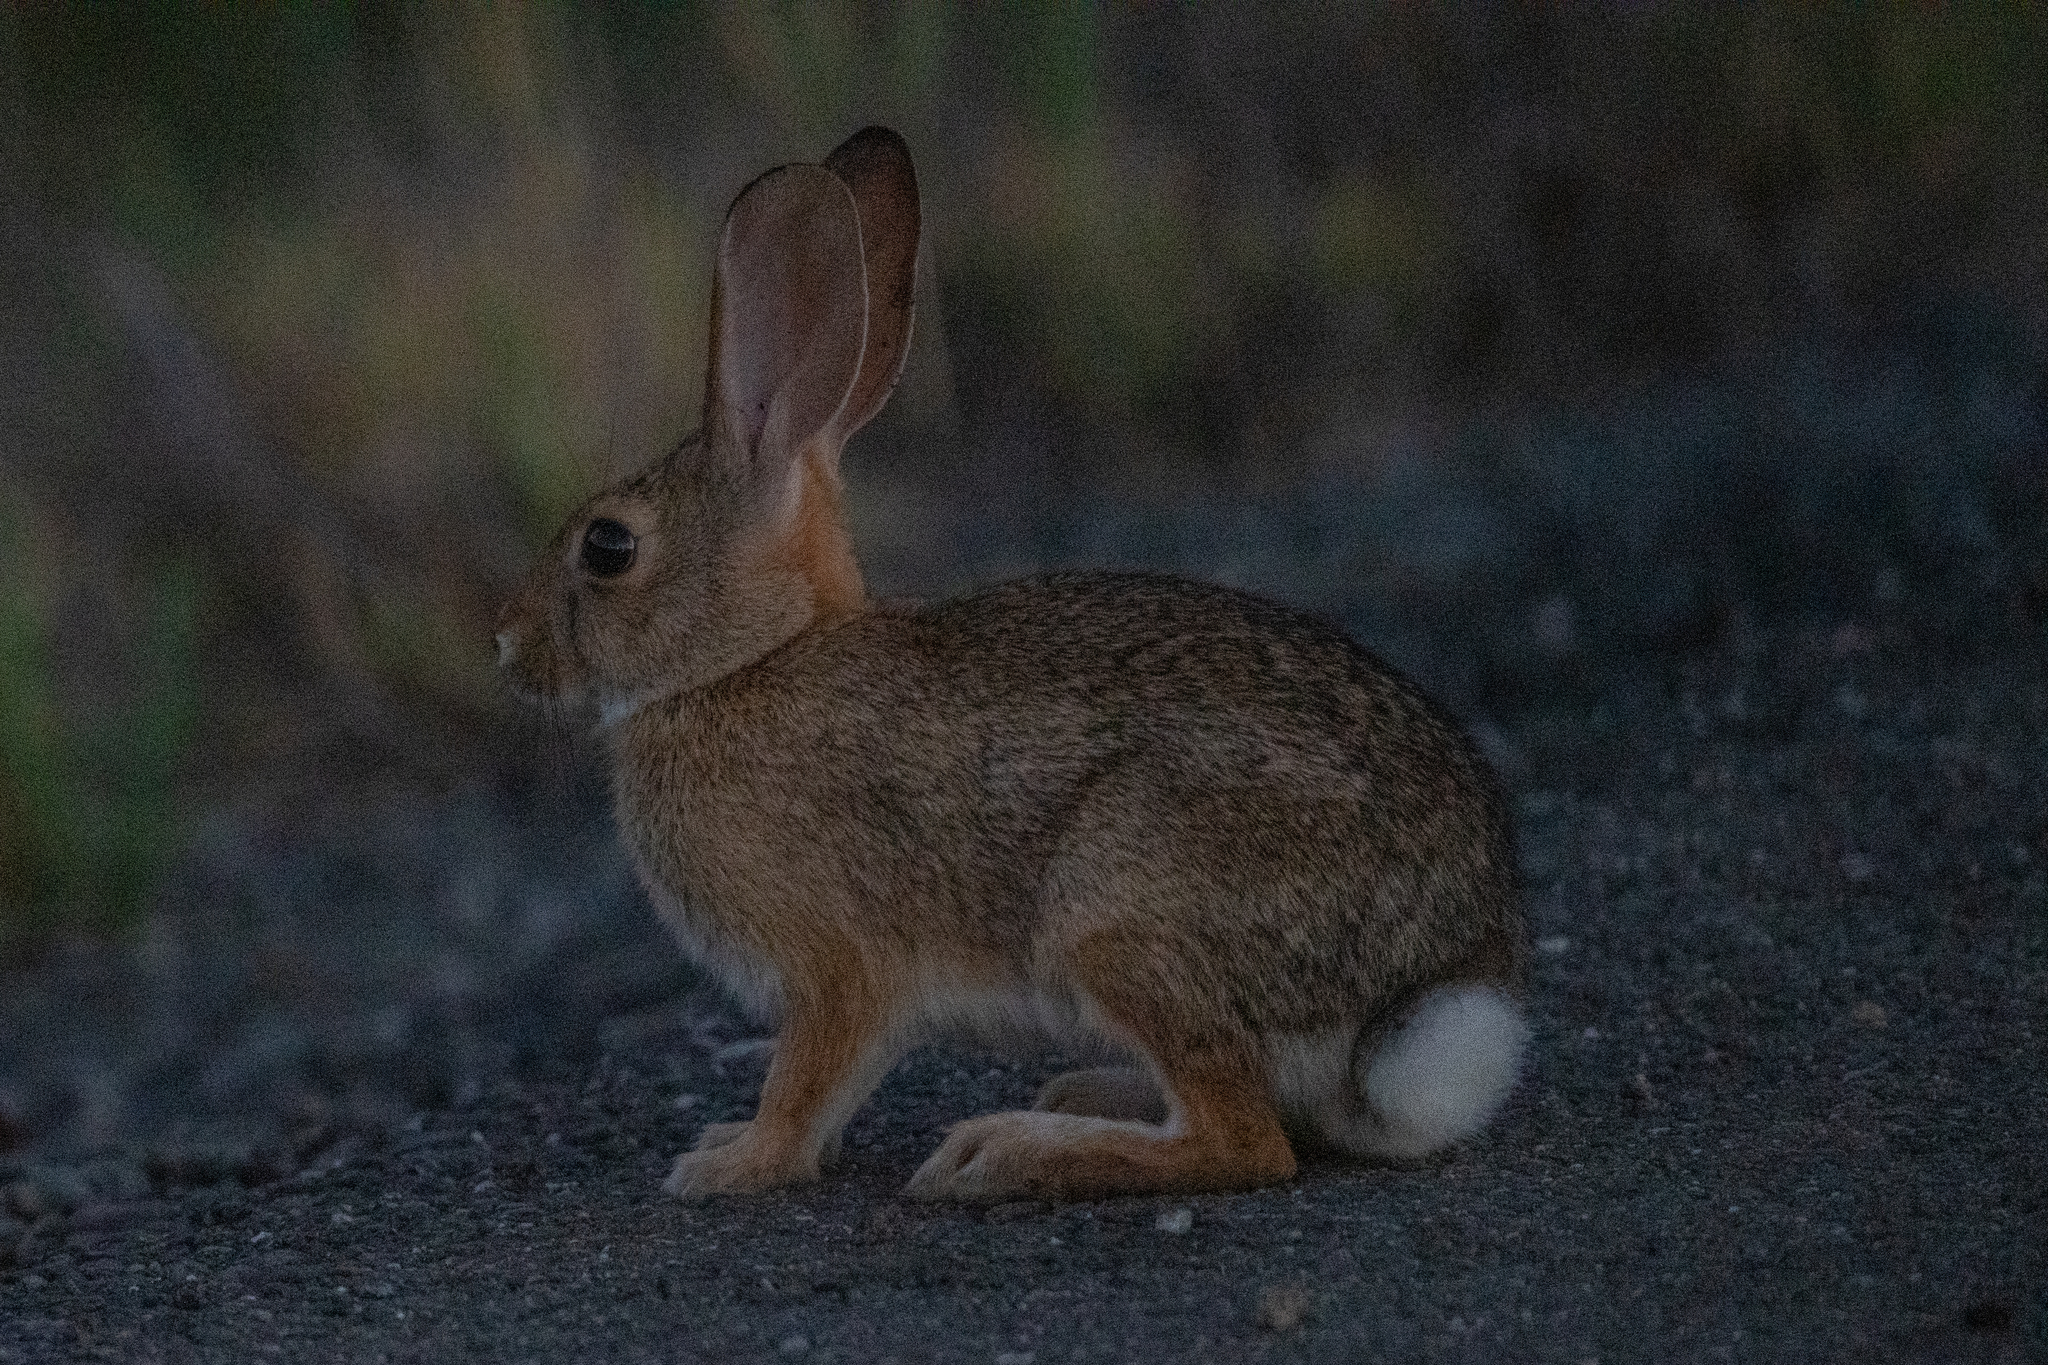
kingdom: Animalia
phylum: Chordata
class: Mammalia
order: Lagomorpha
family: Leporidae
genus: Sylvilagus
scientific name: Sylvilagus audubonii
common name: Desert cottontail
